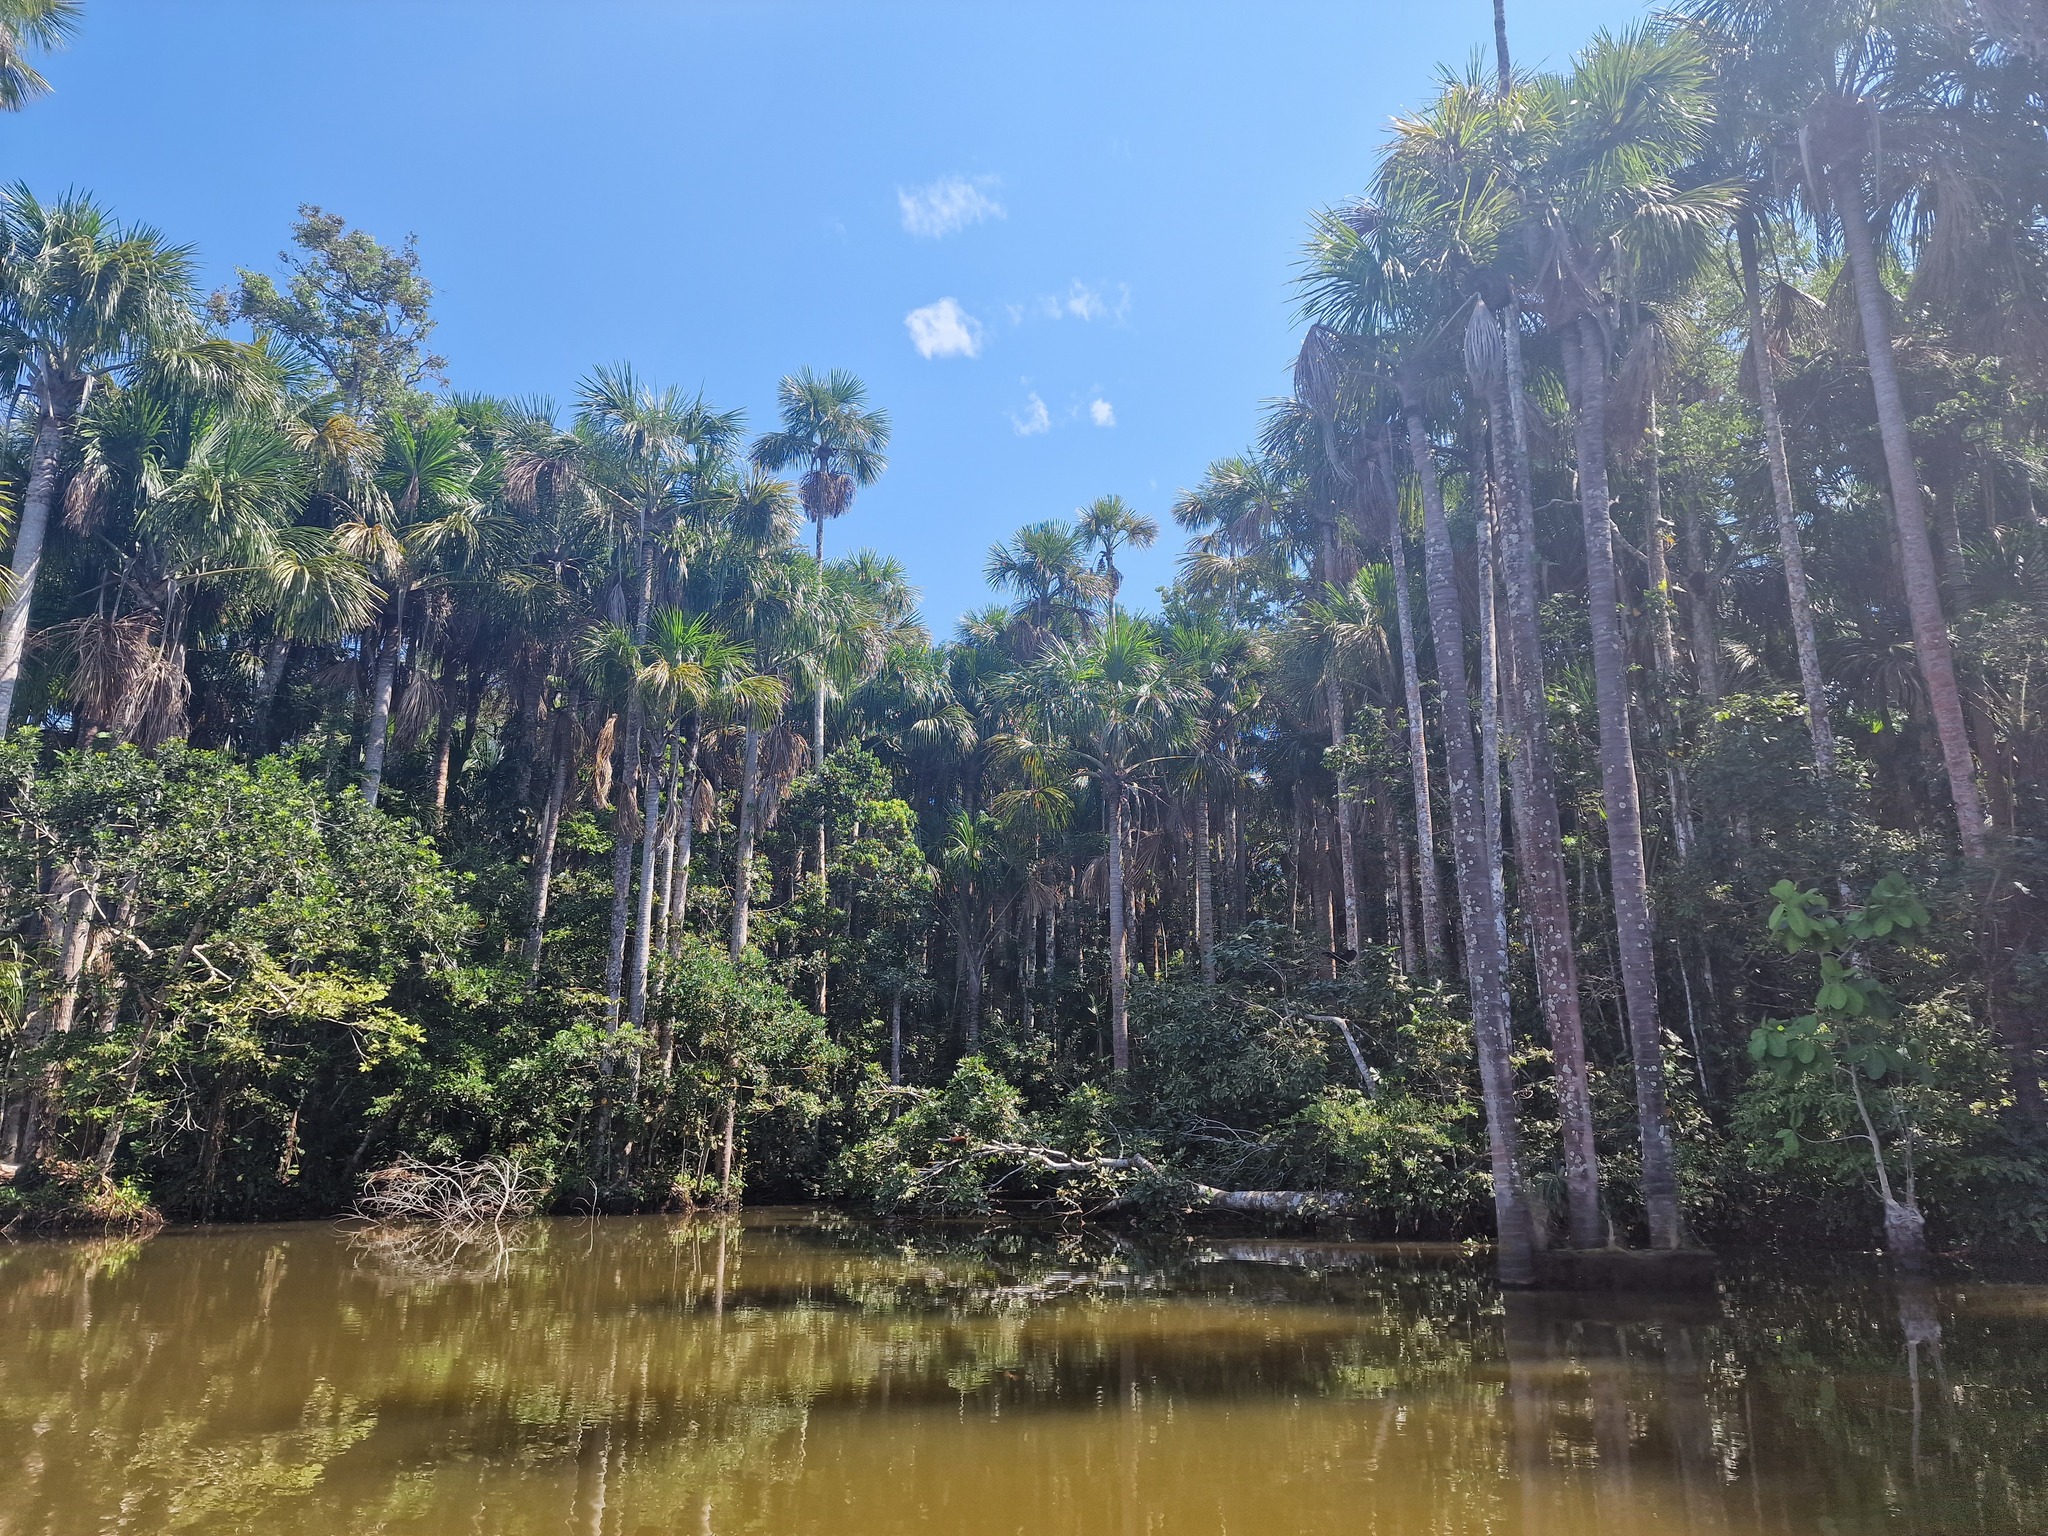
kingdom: Plantae
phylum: Tracheophyta
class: Liliopsida
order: Arecales
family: Arecaceae
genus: Mauritia
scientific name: Mauritia flexuosa
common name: Tree-of-life
